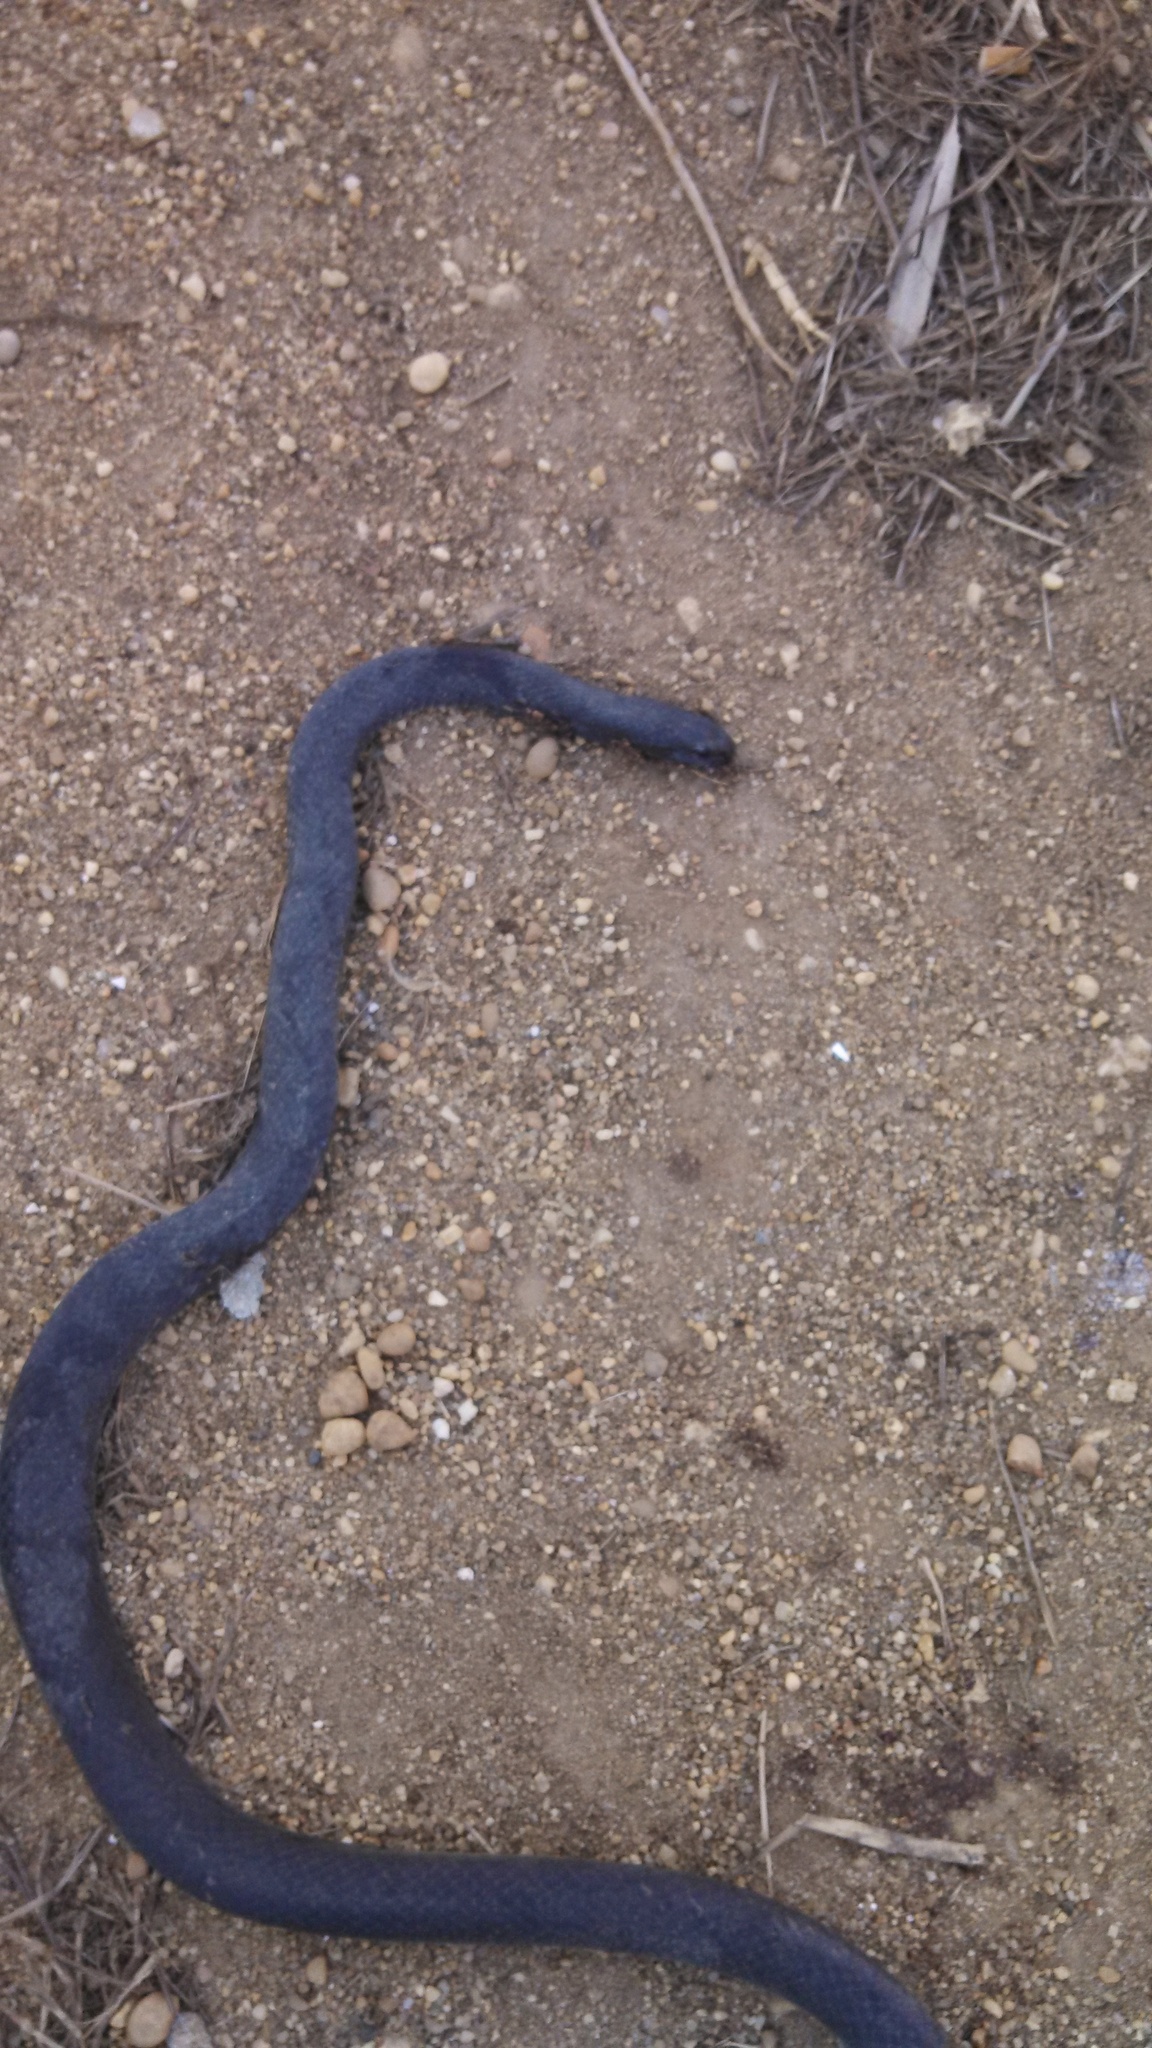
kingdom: Animalia
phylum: Chordata
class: Squamata
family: Colubridae
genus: Coluber
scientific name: Coluber constrictor
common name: Eastern racer
